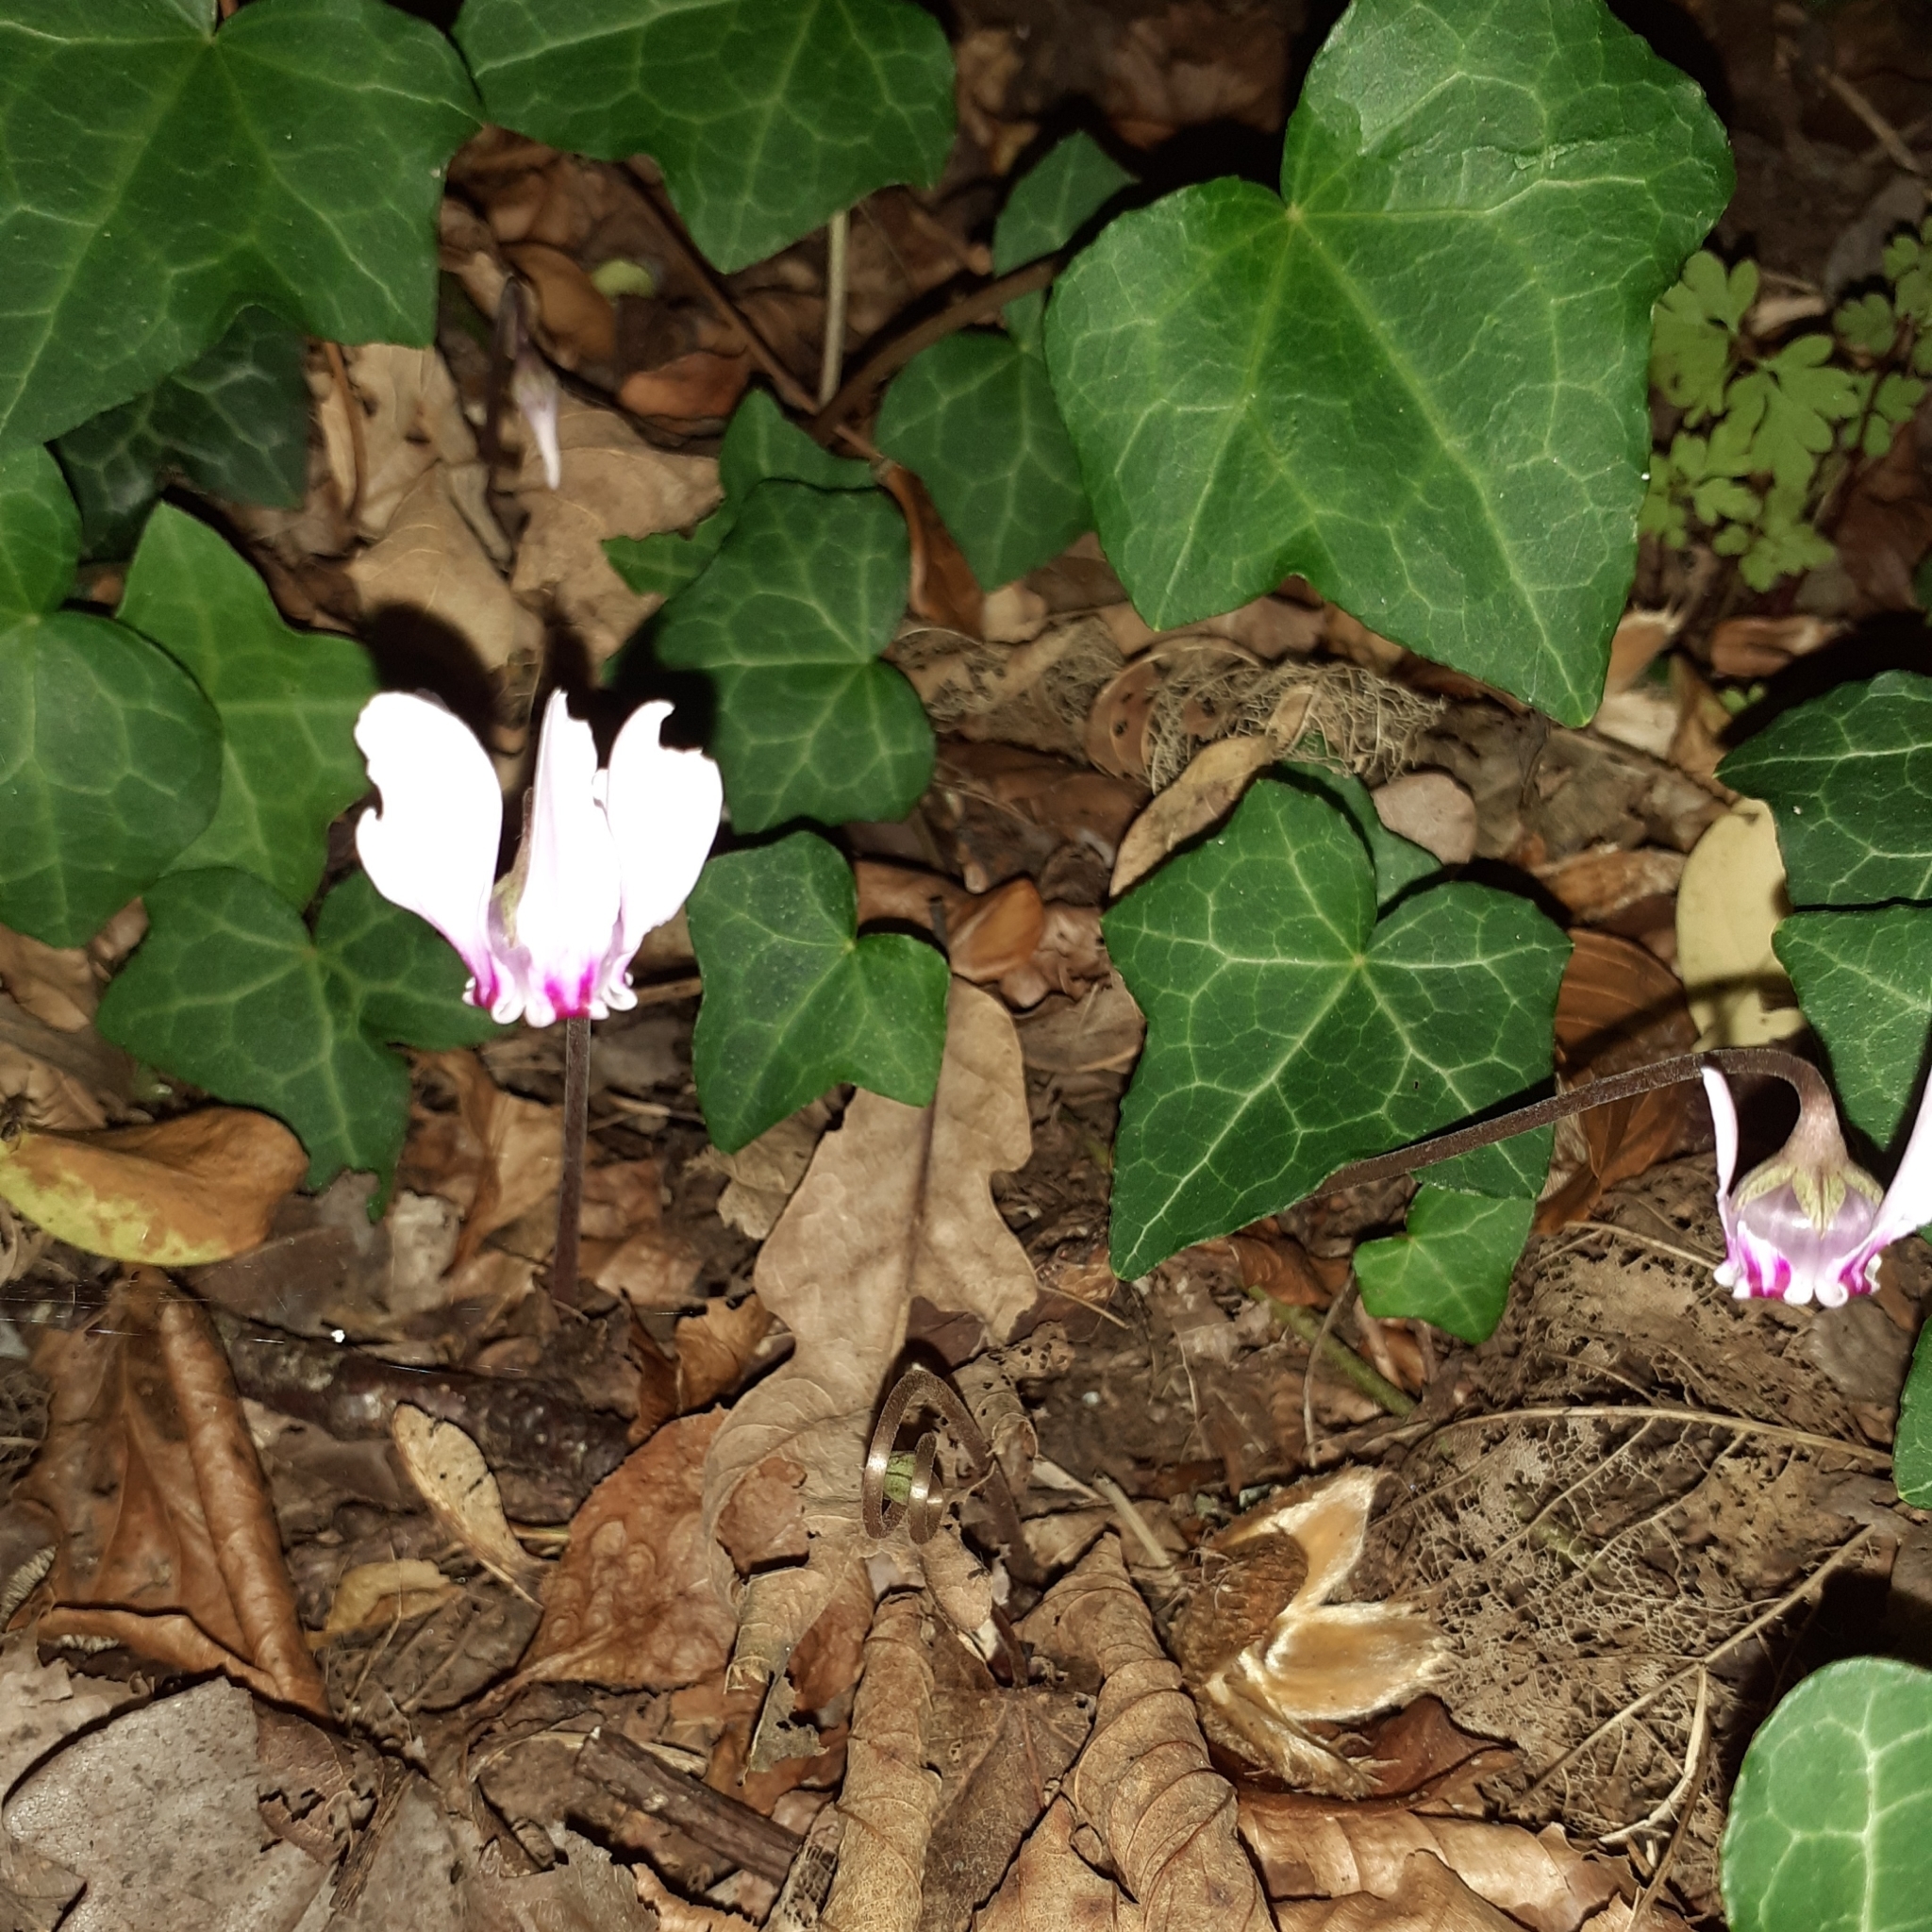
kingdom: Plantae
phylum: Tracheophyta
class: Magnoliopsida
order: Ericales
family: Primulaceae
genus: Cyclamen
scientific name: Cyclamen hederifolium
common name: Sowbread
